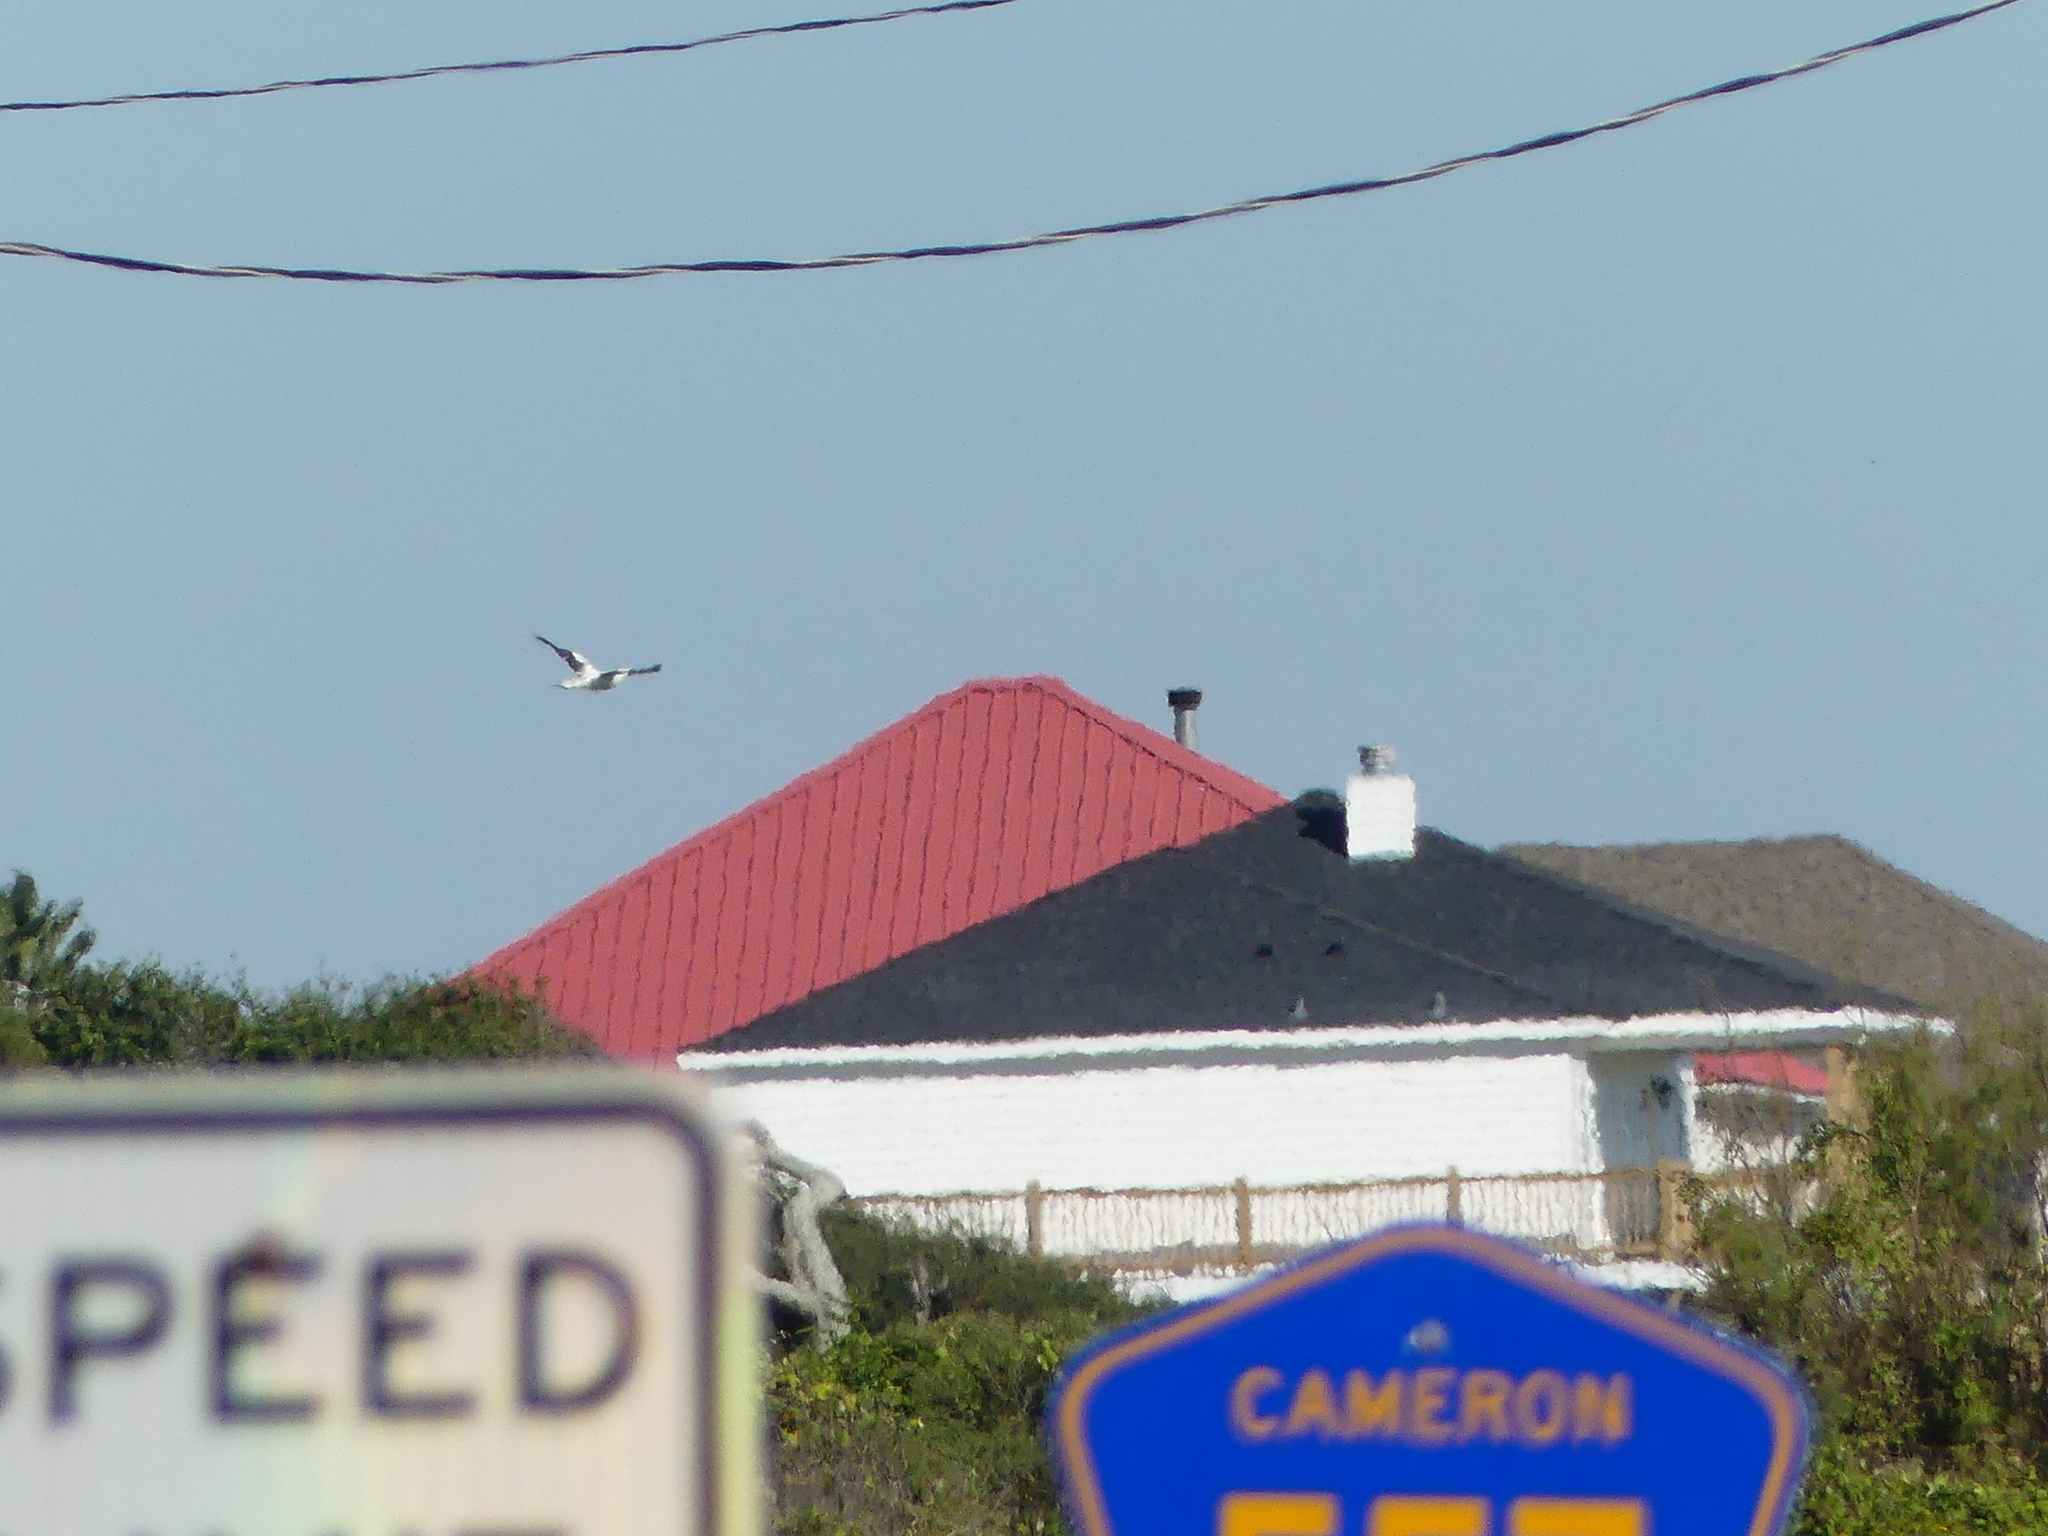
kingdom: Animalia
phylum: Chordata
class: Aves
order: Suliformes
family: Sulidae
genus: Sula
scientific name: Sula dactylatra
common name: Masked booby
